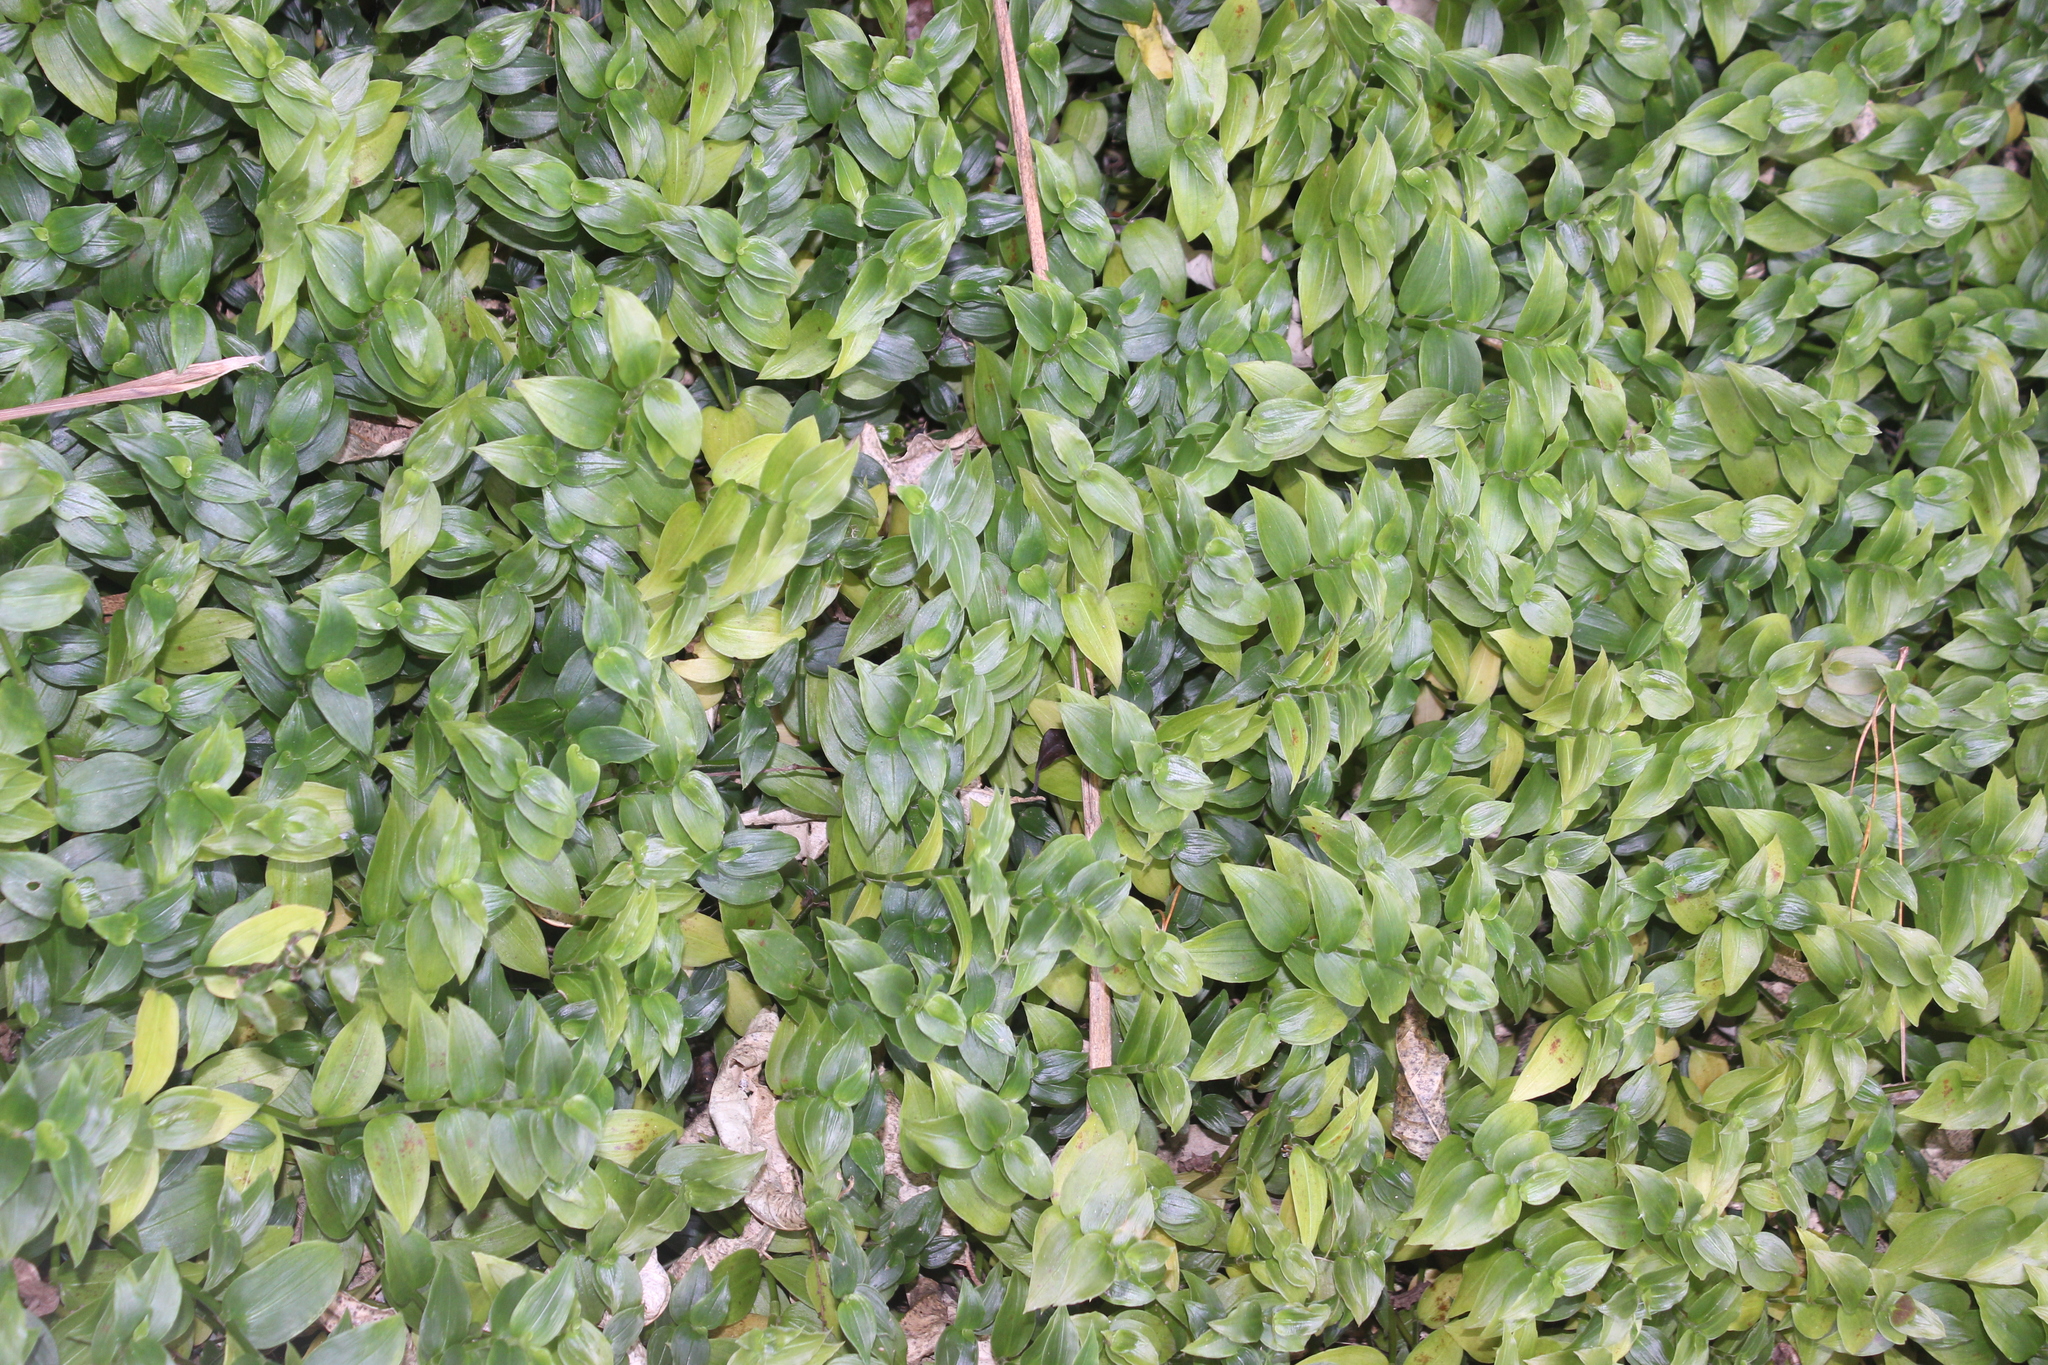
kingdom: Plantae
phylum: Tracheophyta
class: Liliopsida
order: Commelinales
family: Commelinaceae
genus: Tradescantia
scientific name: Tradescantia fluminensis
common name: Wandering-jew
